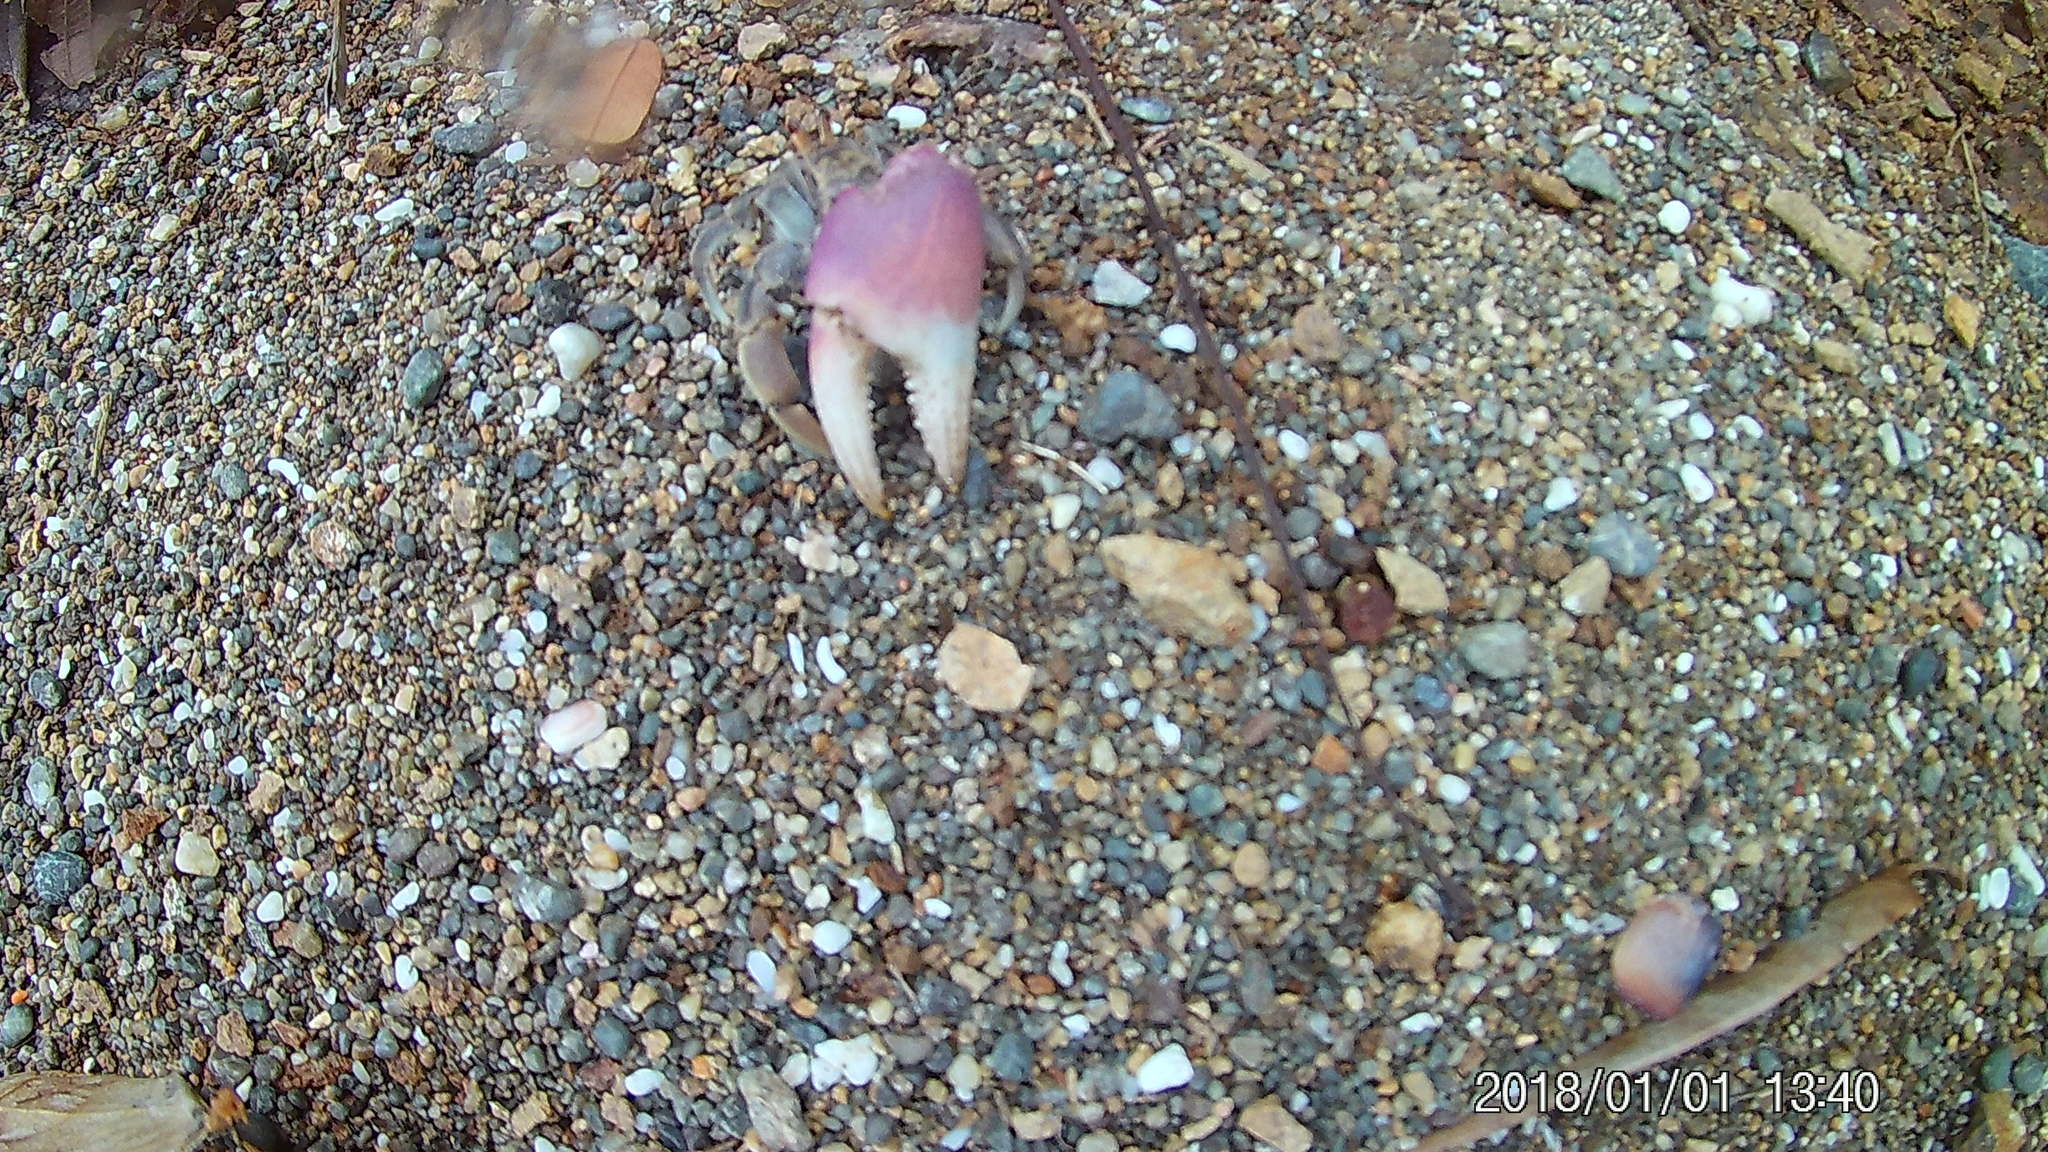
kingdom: Animalia
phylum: Arthropoda
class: Malacostraca
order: Decapoda
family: Coenobitidae
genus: Coenobita
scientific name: Coenobita compressus
